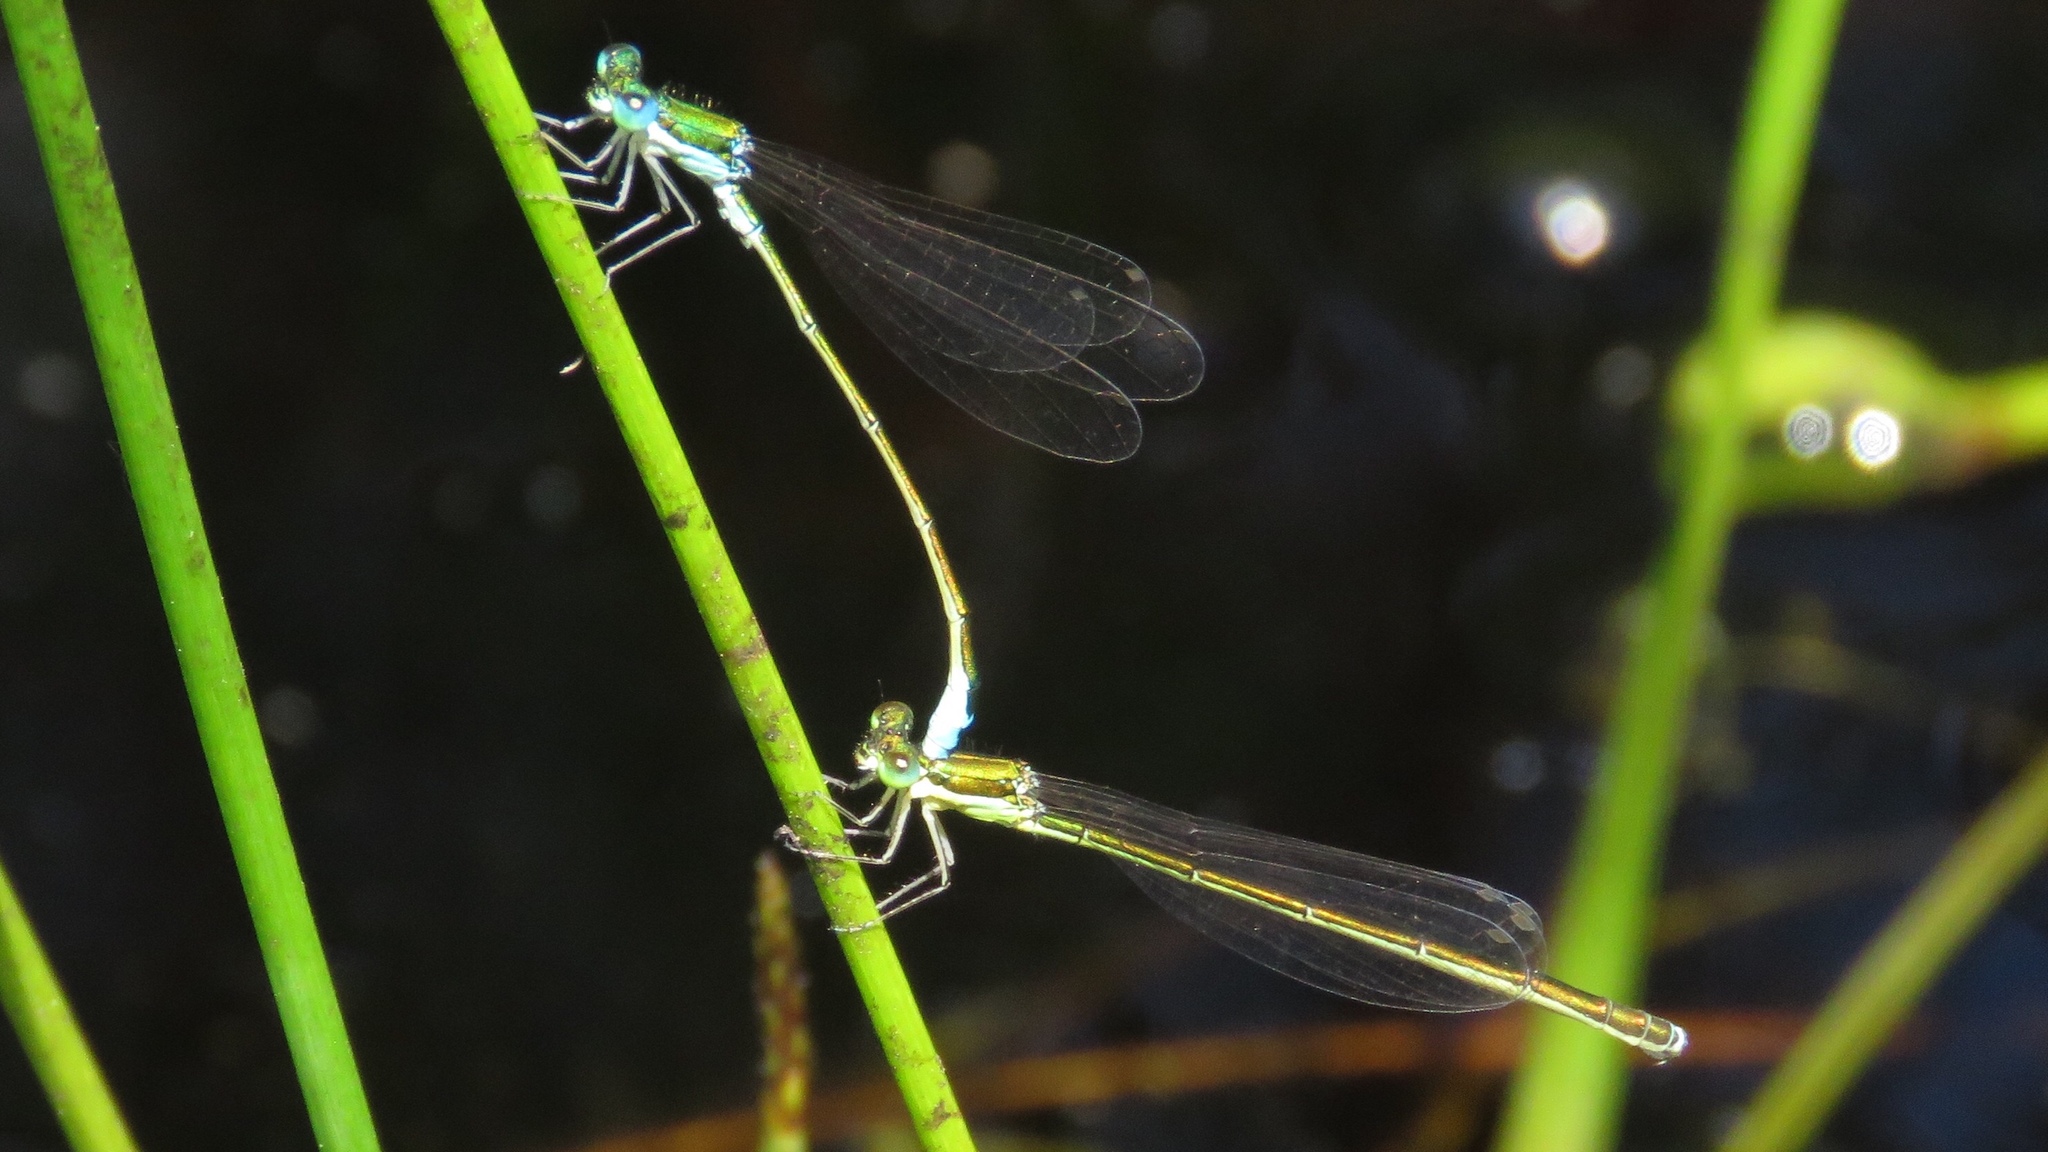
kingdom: Animalia
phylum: Arthropoda
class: Insecta
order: Odonata
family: Coenagrionidae
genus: Nehalennia
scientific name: Nehalennia irene
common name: Sedge sprite
